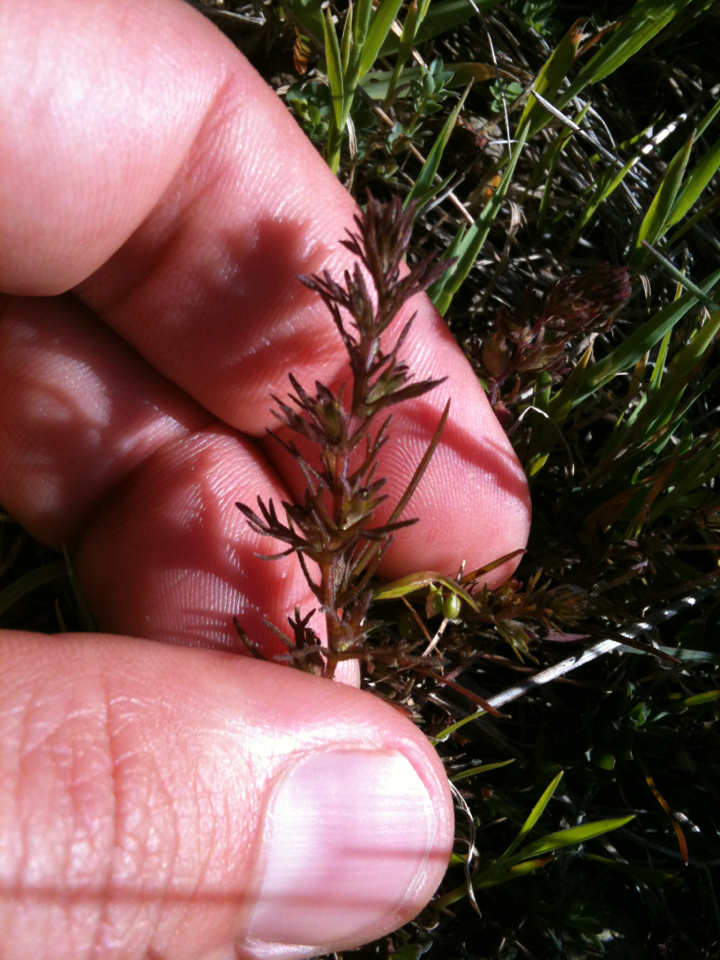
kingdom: Plantae
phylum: Tracheophyta
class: Magnoliopsida
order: Lamiales
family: Orobanchaceae
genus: Triphysaria
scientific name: Triphysaria pusilla
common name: Dwarf false owl-clover
